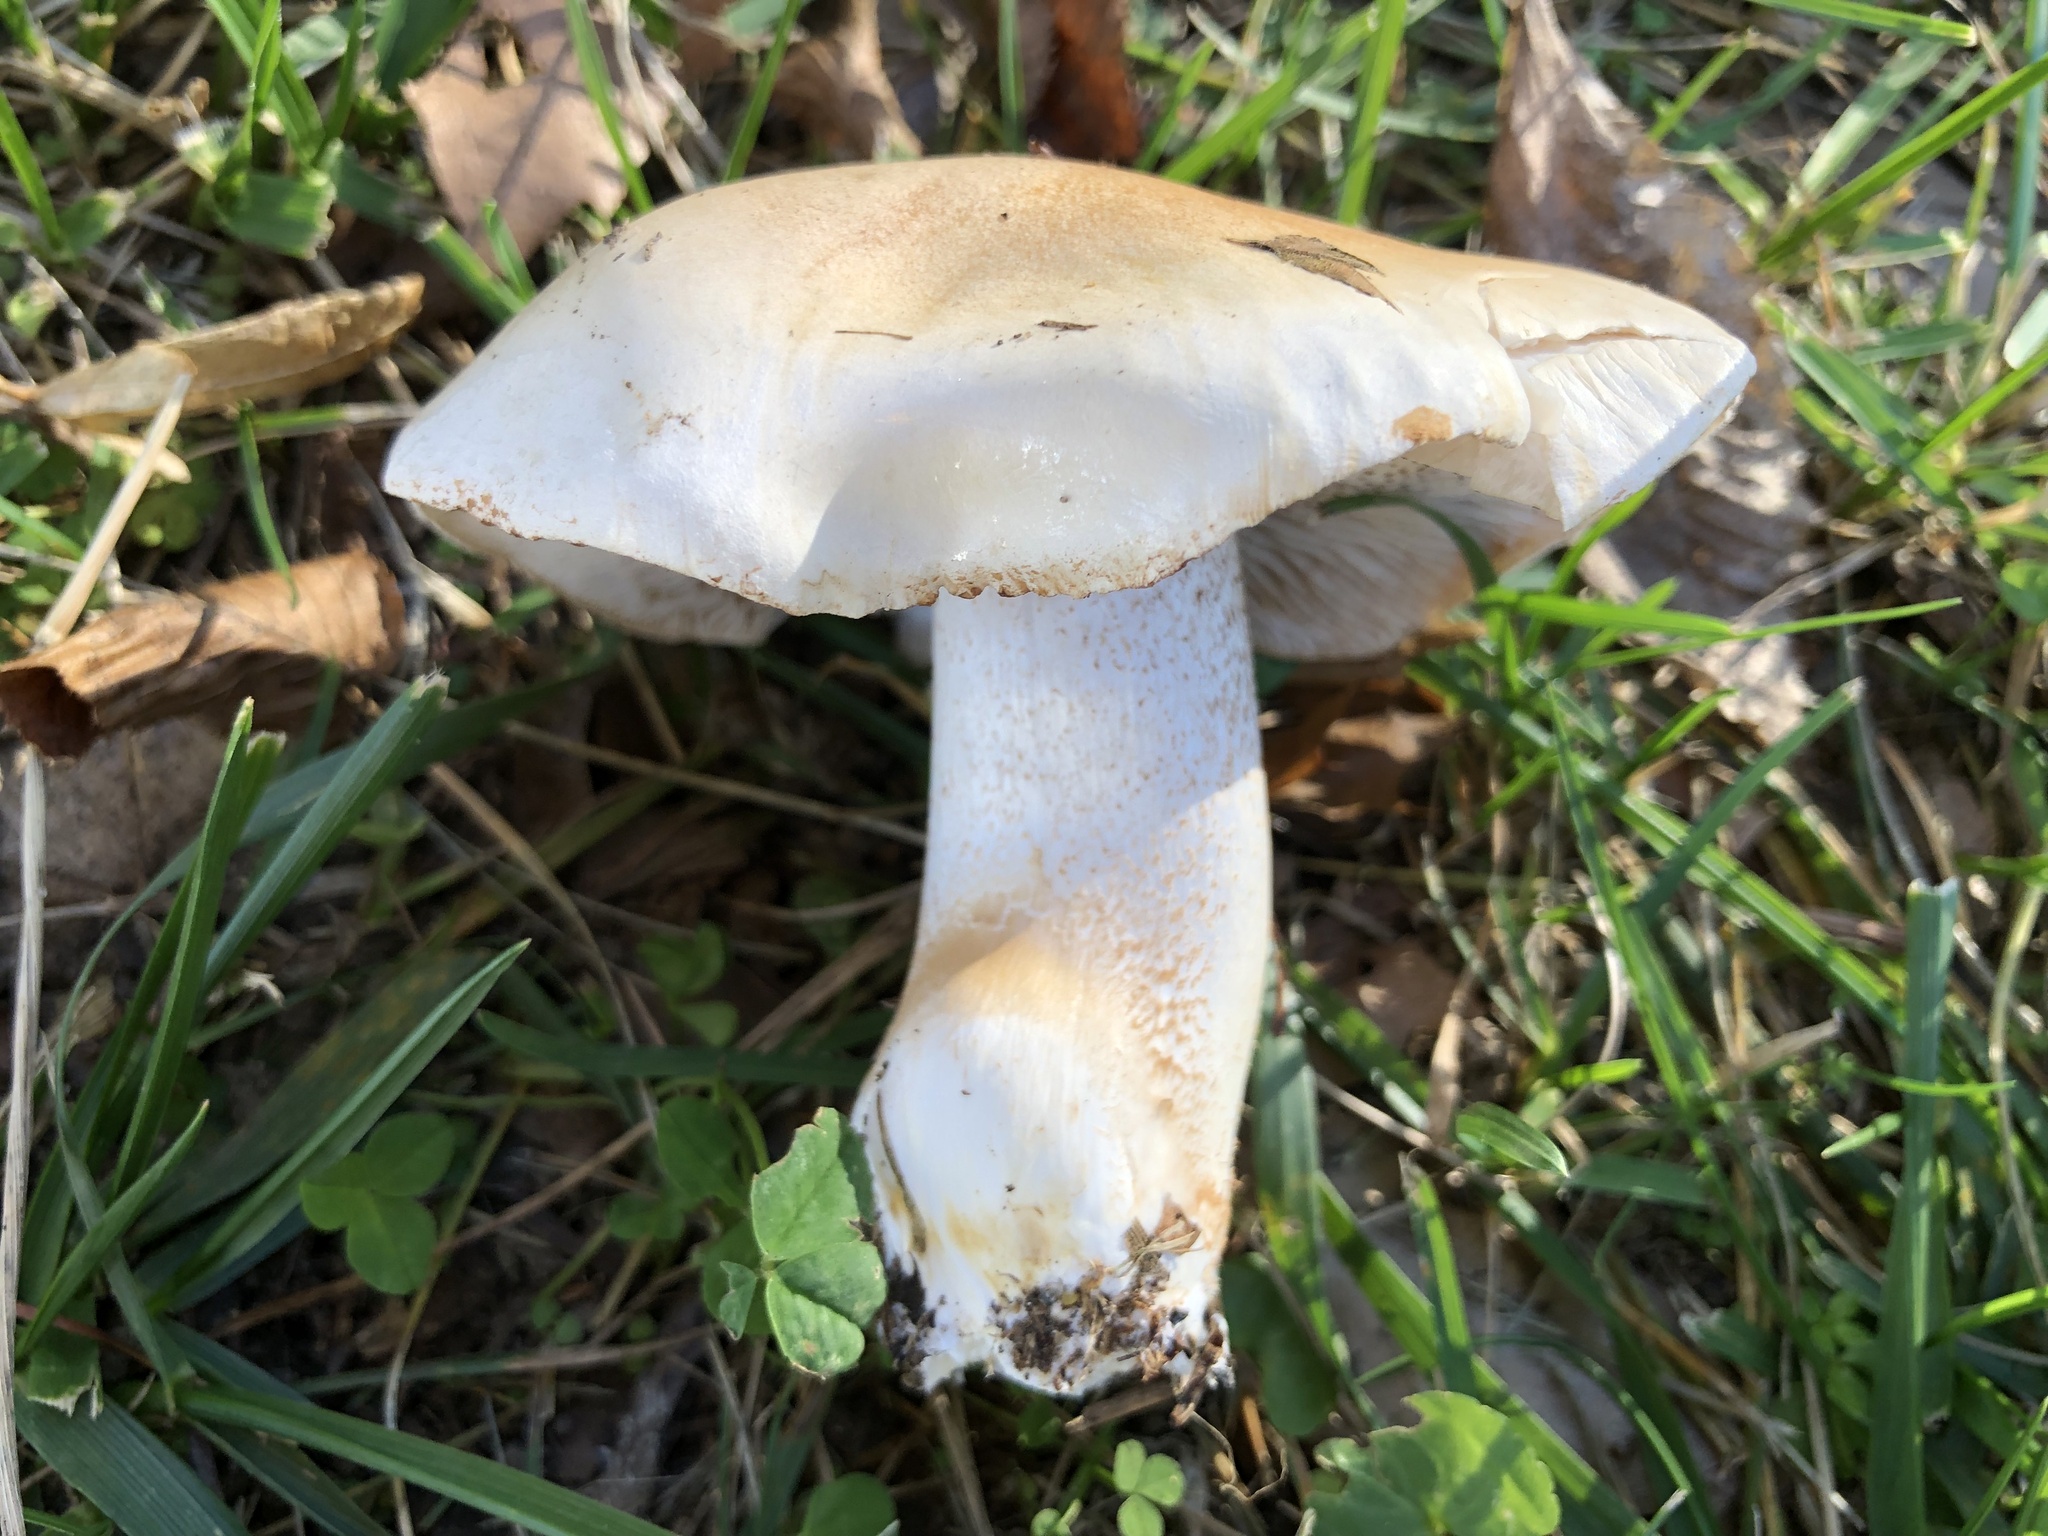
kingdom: Fungi
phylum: Basidiomycota
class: Agaricomycetes
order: Agaricales
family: Hymenogastraceae
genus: Hebeloma
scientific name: Hebeloma crustuliniforme
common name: Poison pie
